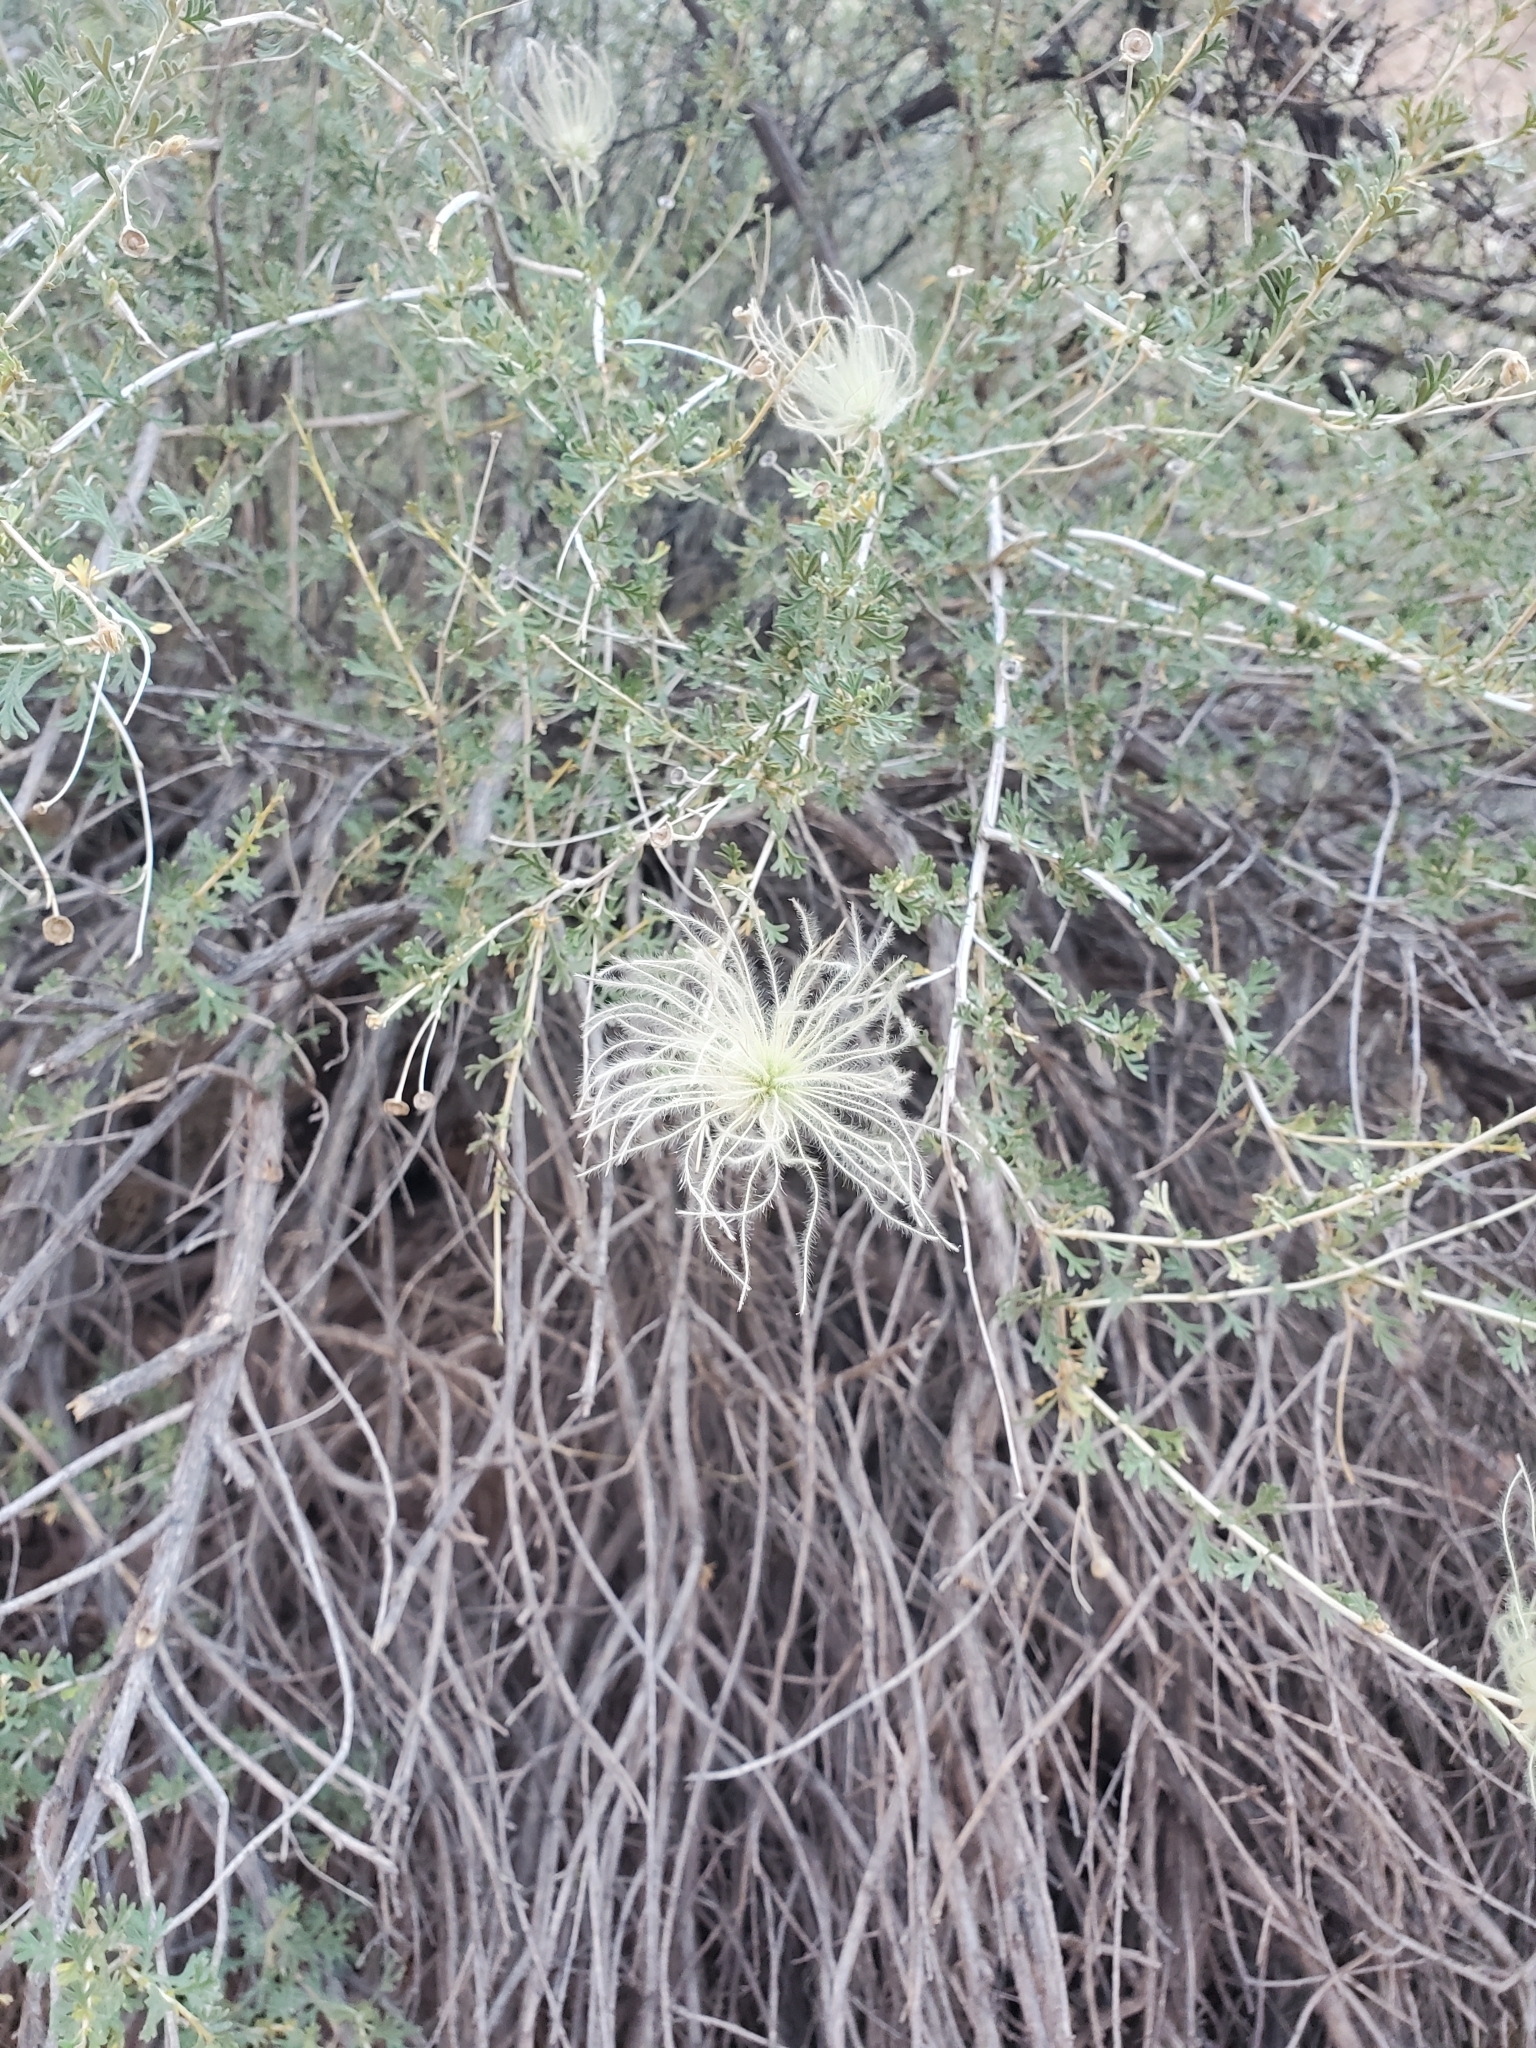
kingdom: Plantae
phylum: Tracheophyta
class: Magnoliopsida
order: Rosales
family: Rosaceae
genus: Fallugia
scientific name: Fallugia paradoxa
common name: Apache-plume
